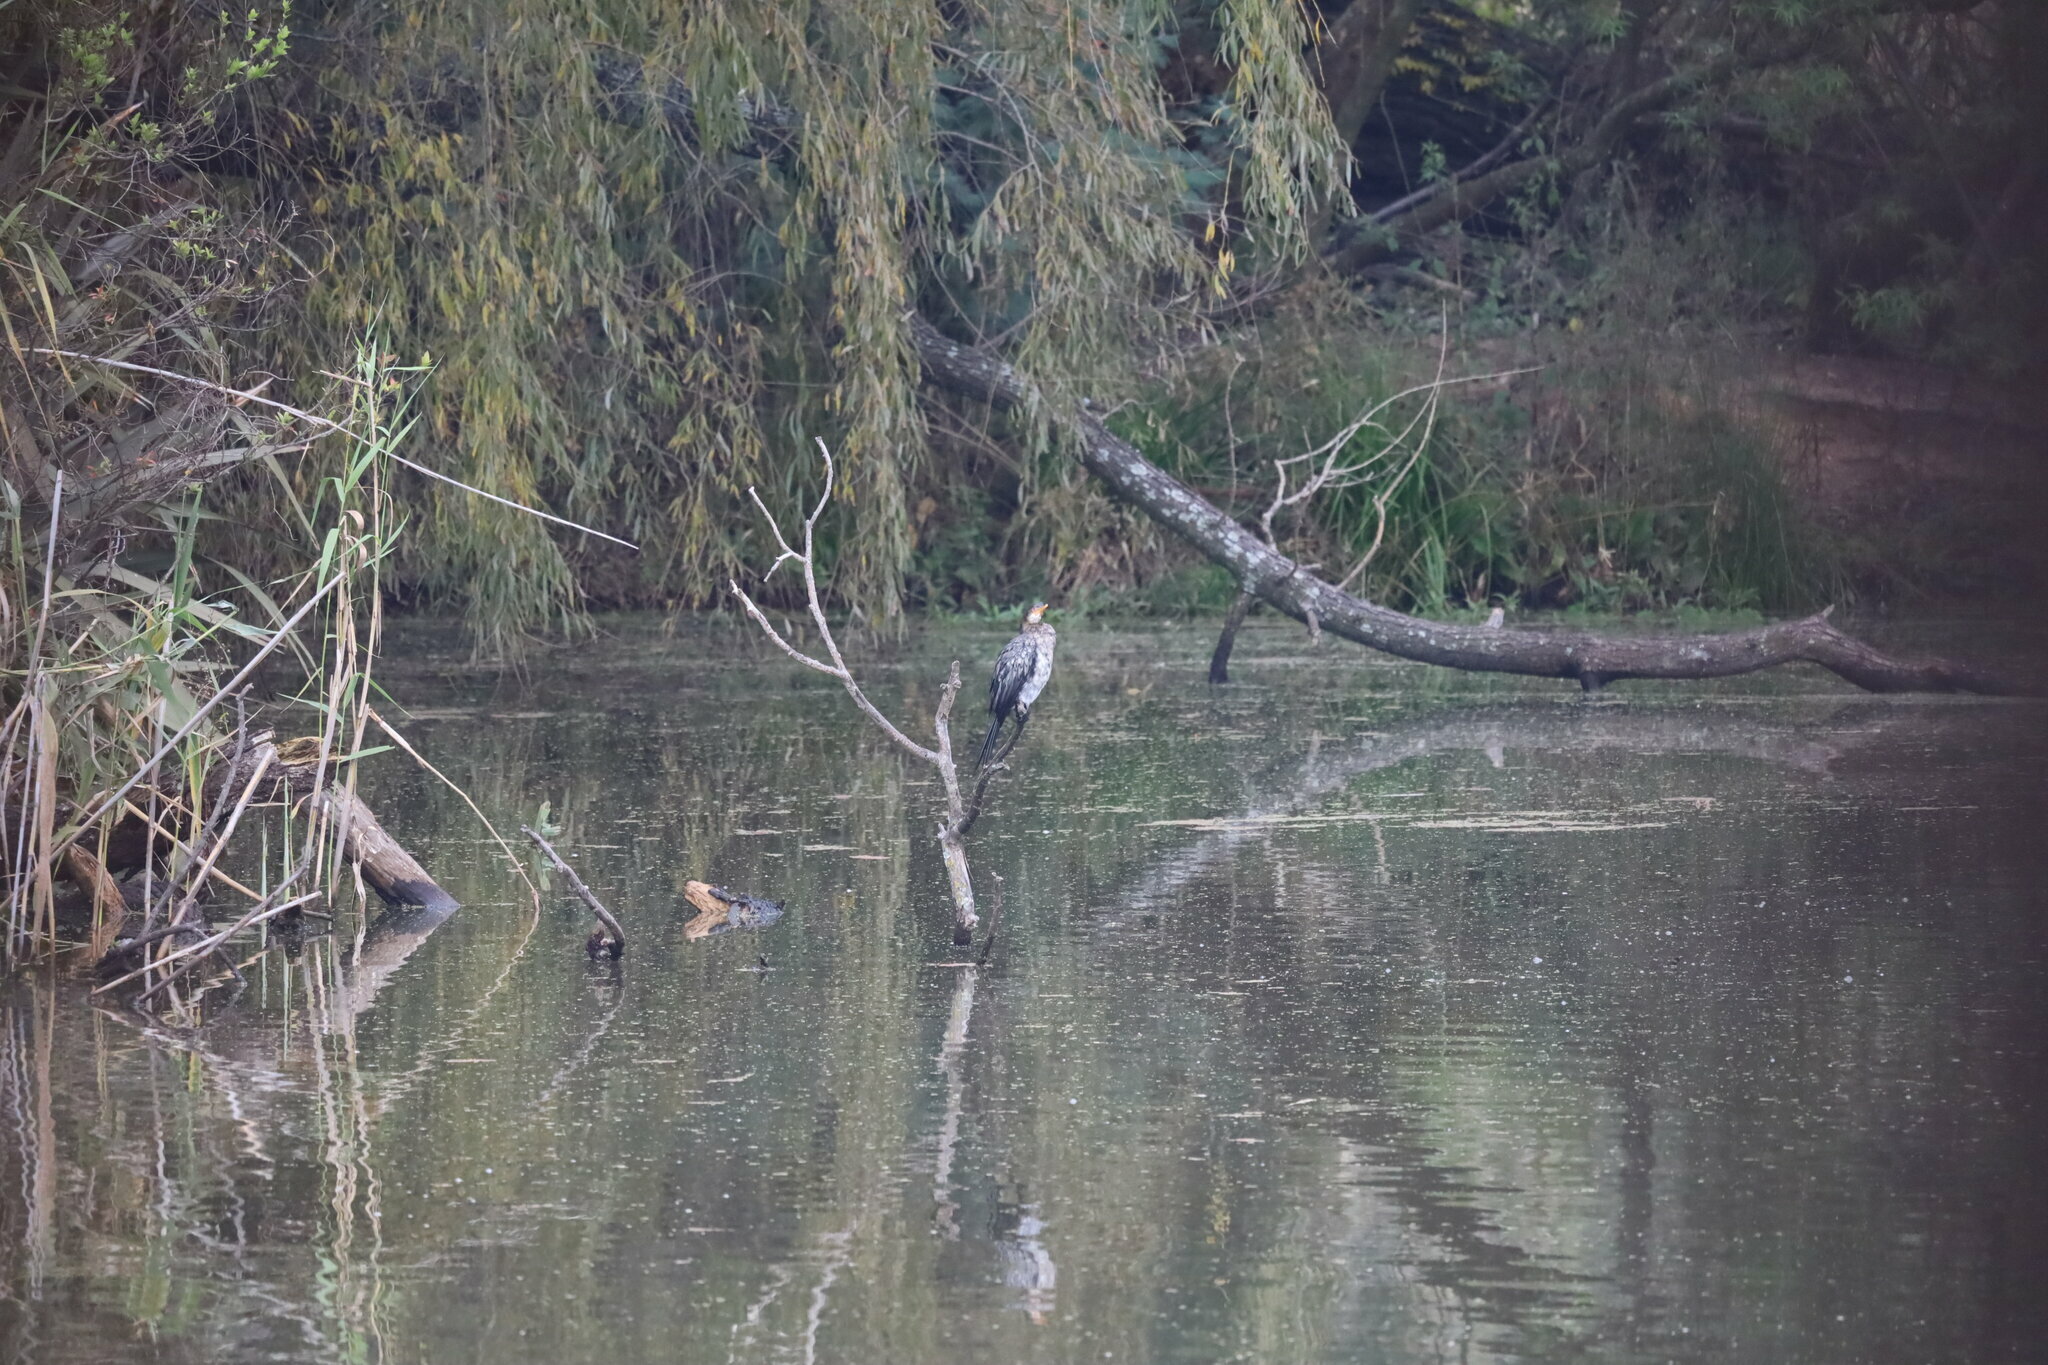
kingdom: Animalia
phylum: Chordata
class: Aves
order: Suliformes
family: Phalacrocoracidae
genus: Microcarbo
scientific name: Microcarbo africanus
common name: Long-tailed cormorant
